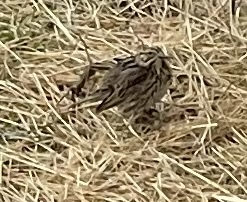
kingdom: Animalia
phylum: Chordata
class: Aves
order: Passeriformes
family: Passerellidae
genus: Melospiza
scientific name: Melospiza melodia
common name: Song sparrow
